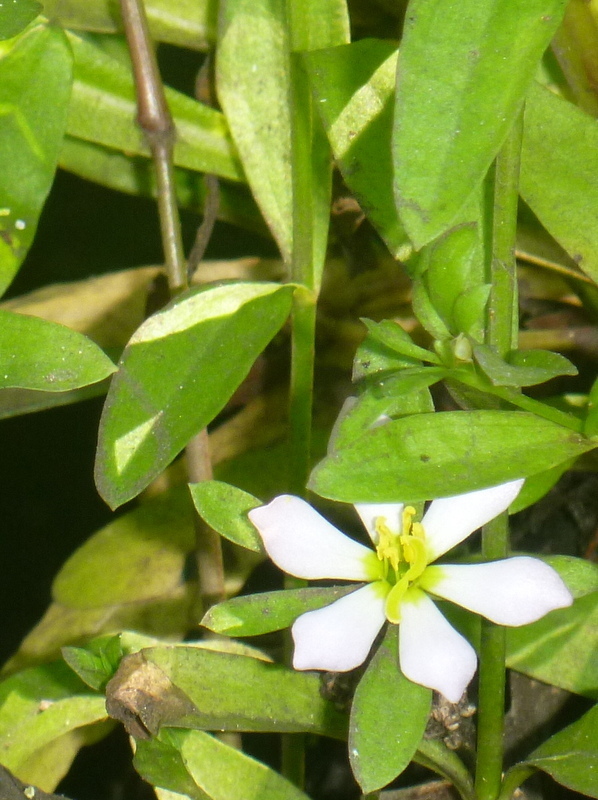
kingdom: Plantae
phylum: Tracheophyta
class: Magnoliopsida
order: Gentianales
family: Gentianaceae
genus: Sabatia
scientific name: Sabatia calycina
